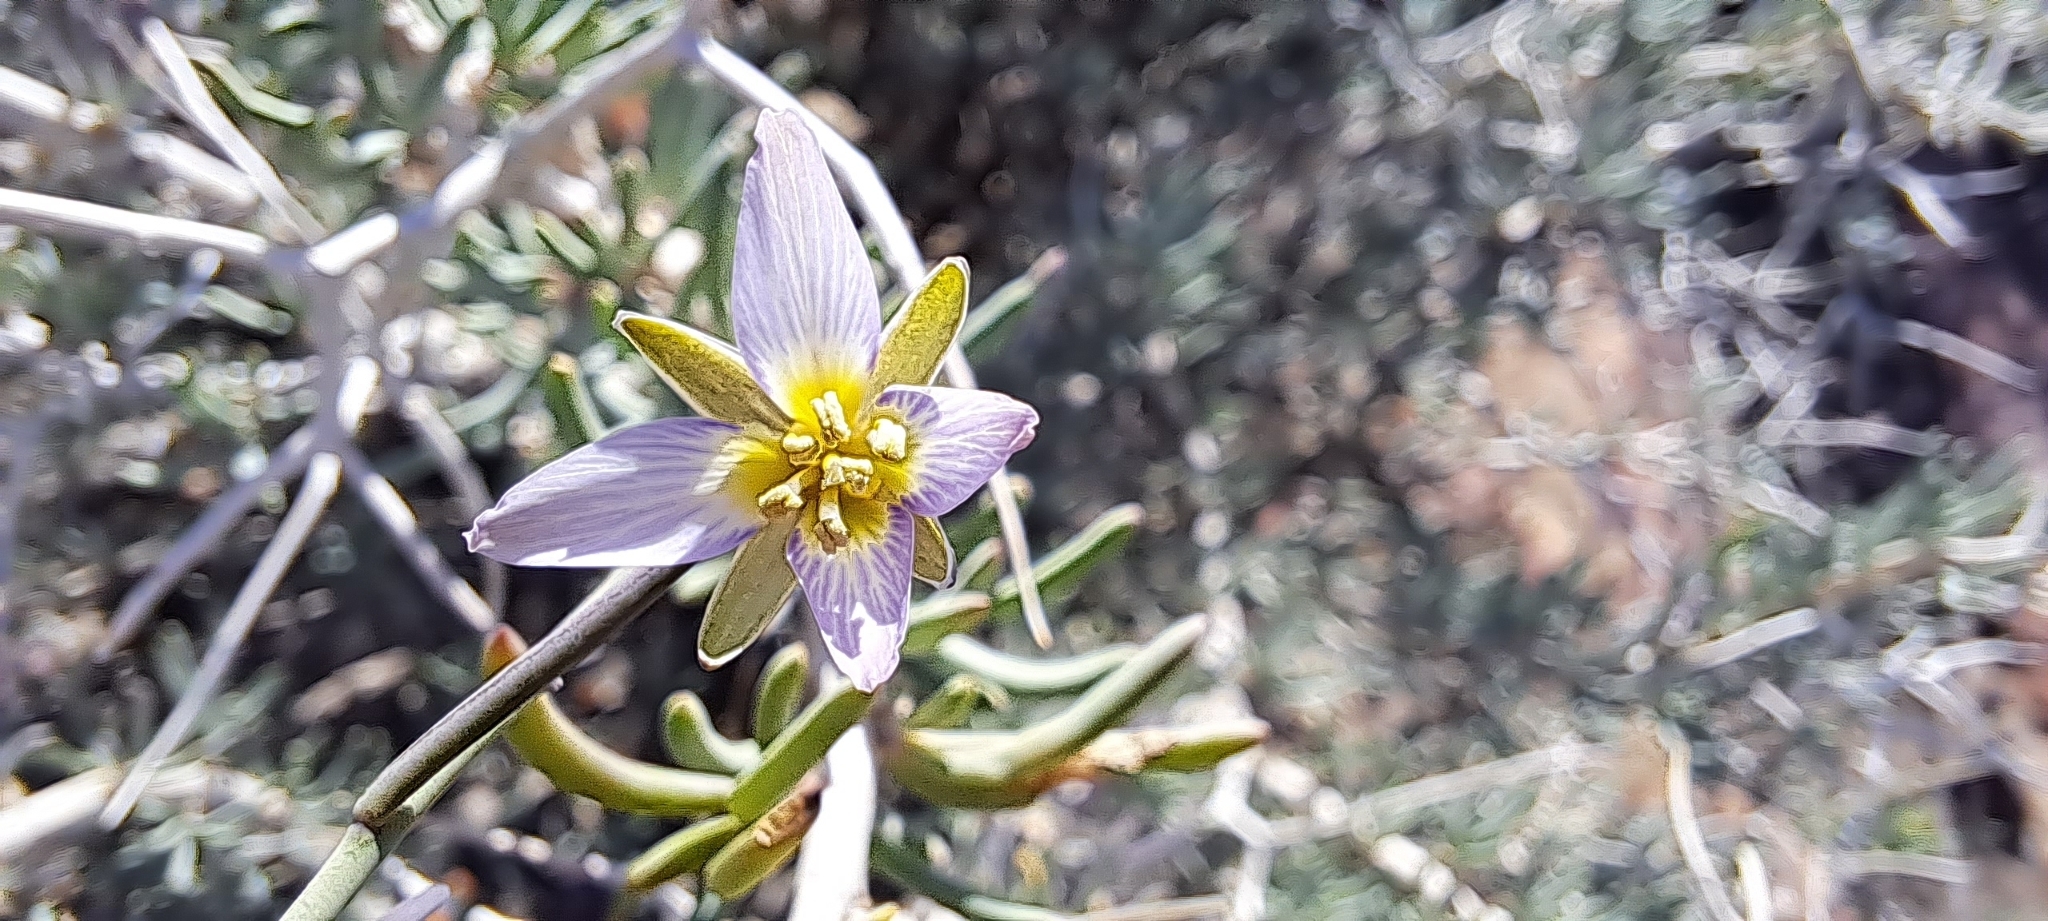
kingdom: Plantae
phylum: Tracheophyta
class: Magnoliopsida
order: Brassicales
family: Brassicaceae
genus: Heliophila
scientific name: Heliophila cornuta
